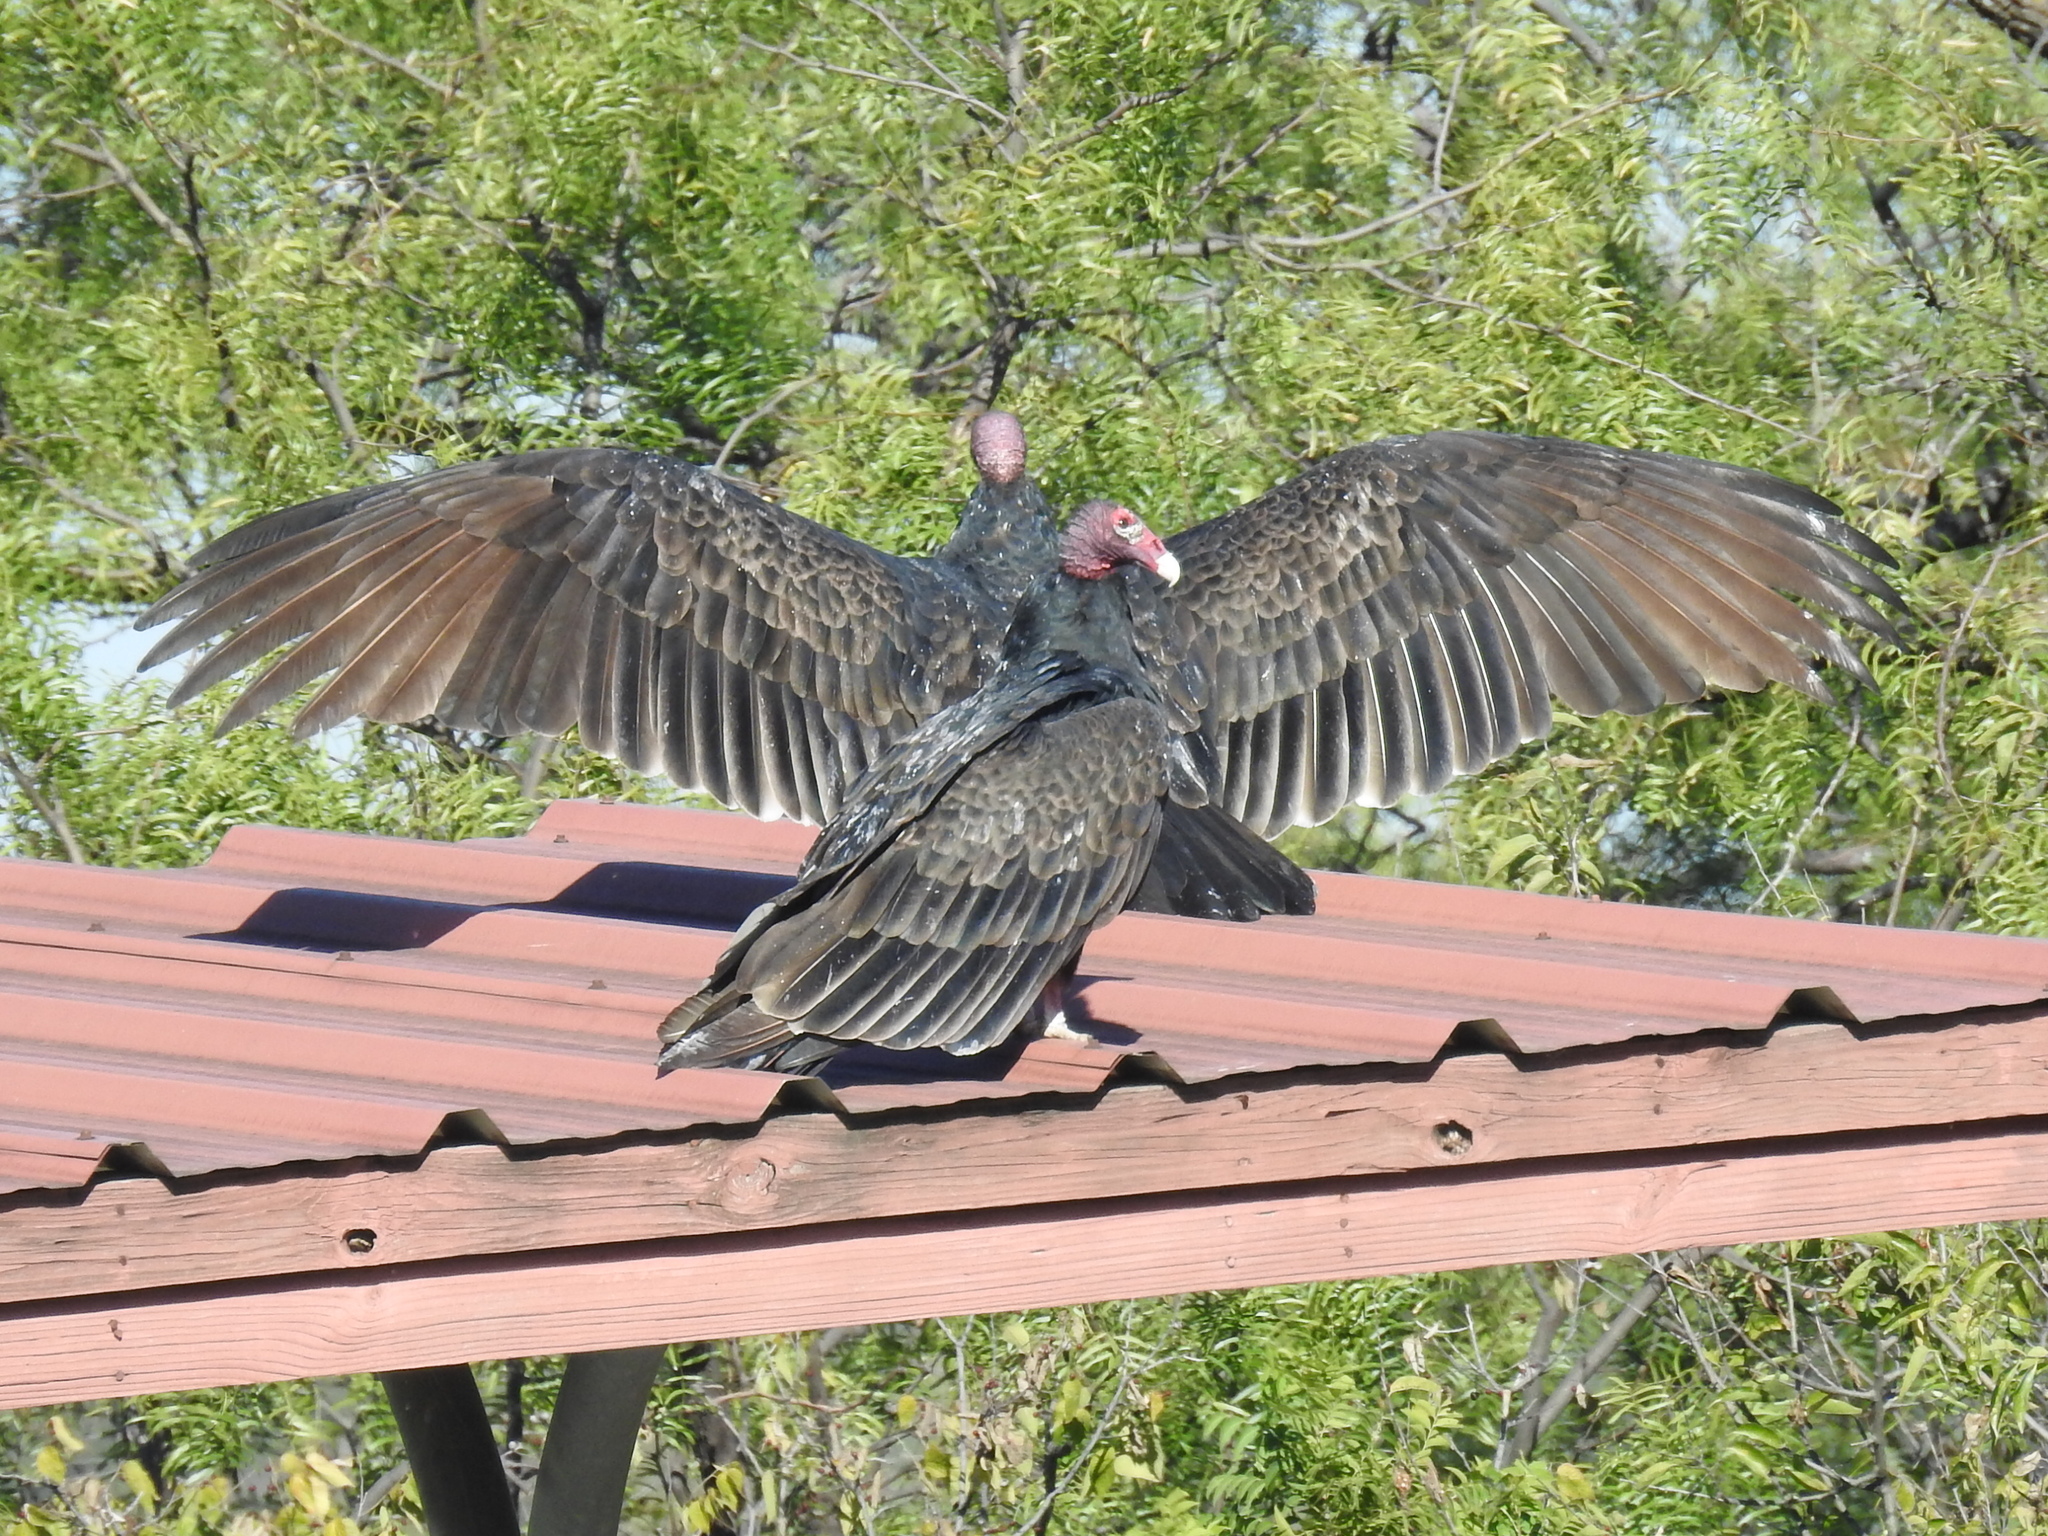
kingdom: Animalia
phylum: Chordata
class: Aves
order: Accipitriformes
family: Cathartidae
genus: Cathartes
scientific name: Cathartes aura
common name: Turkey vulture
